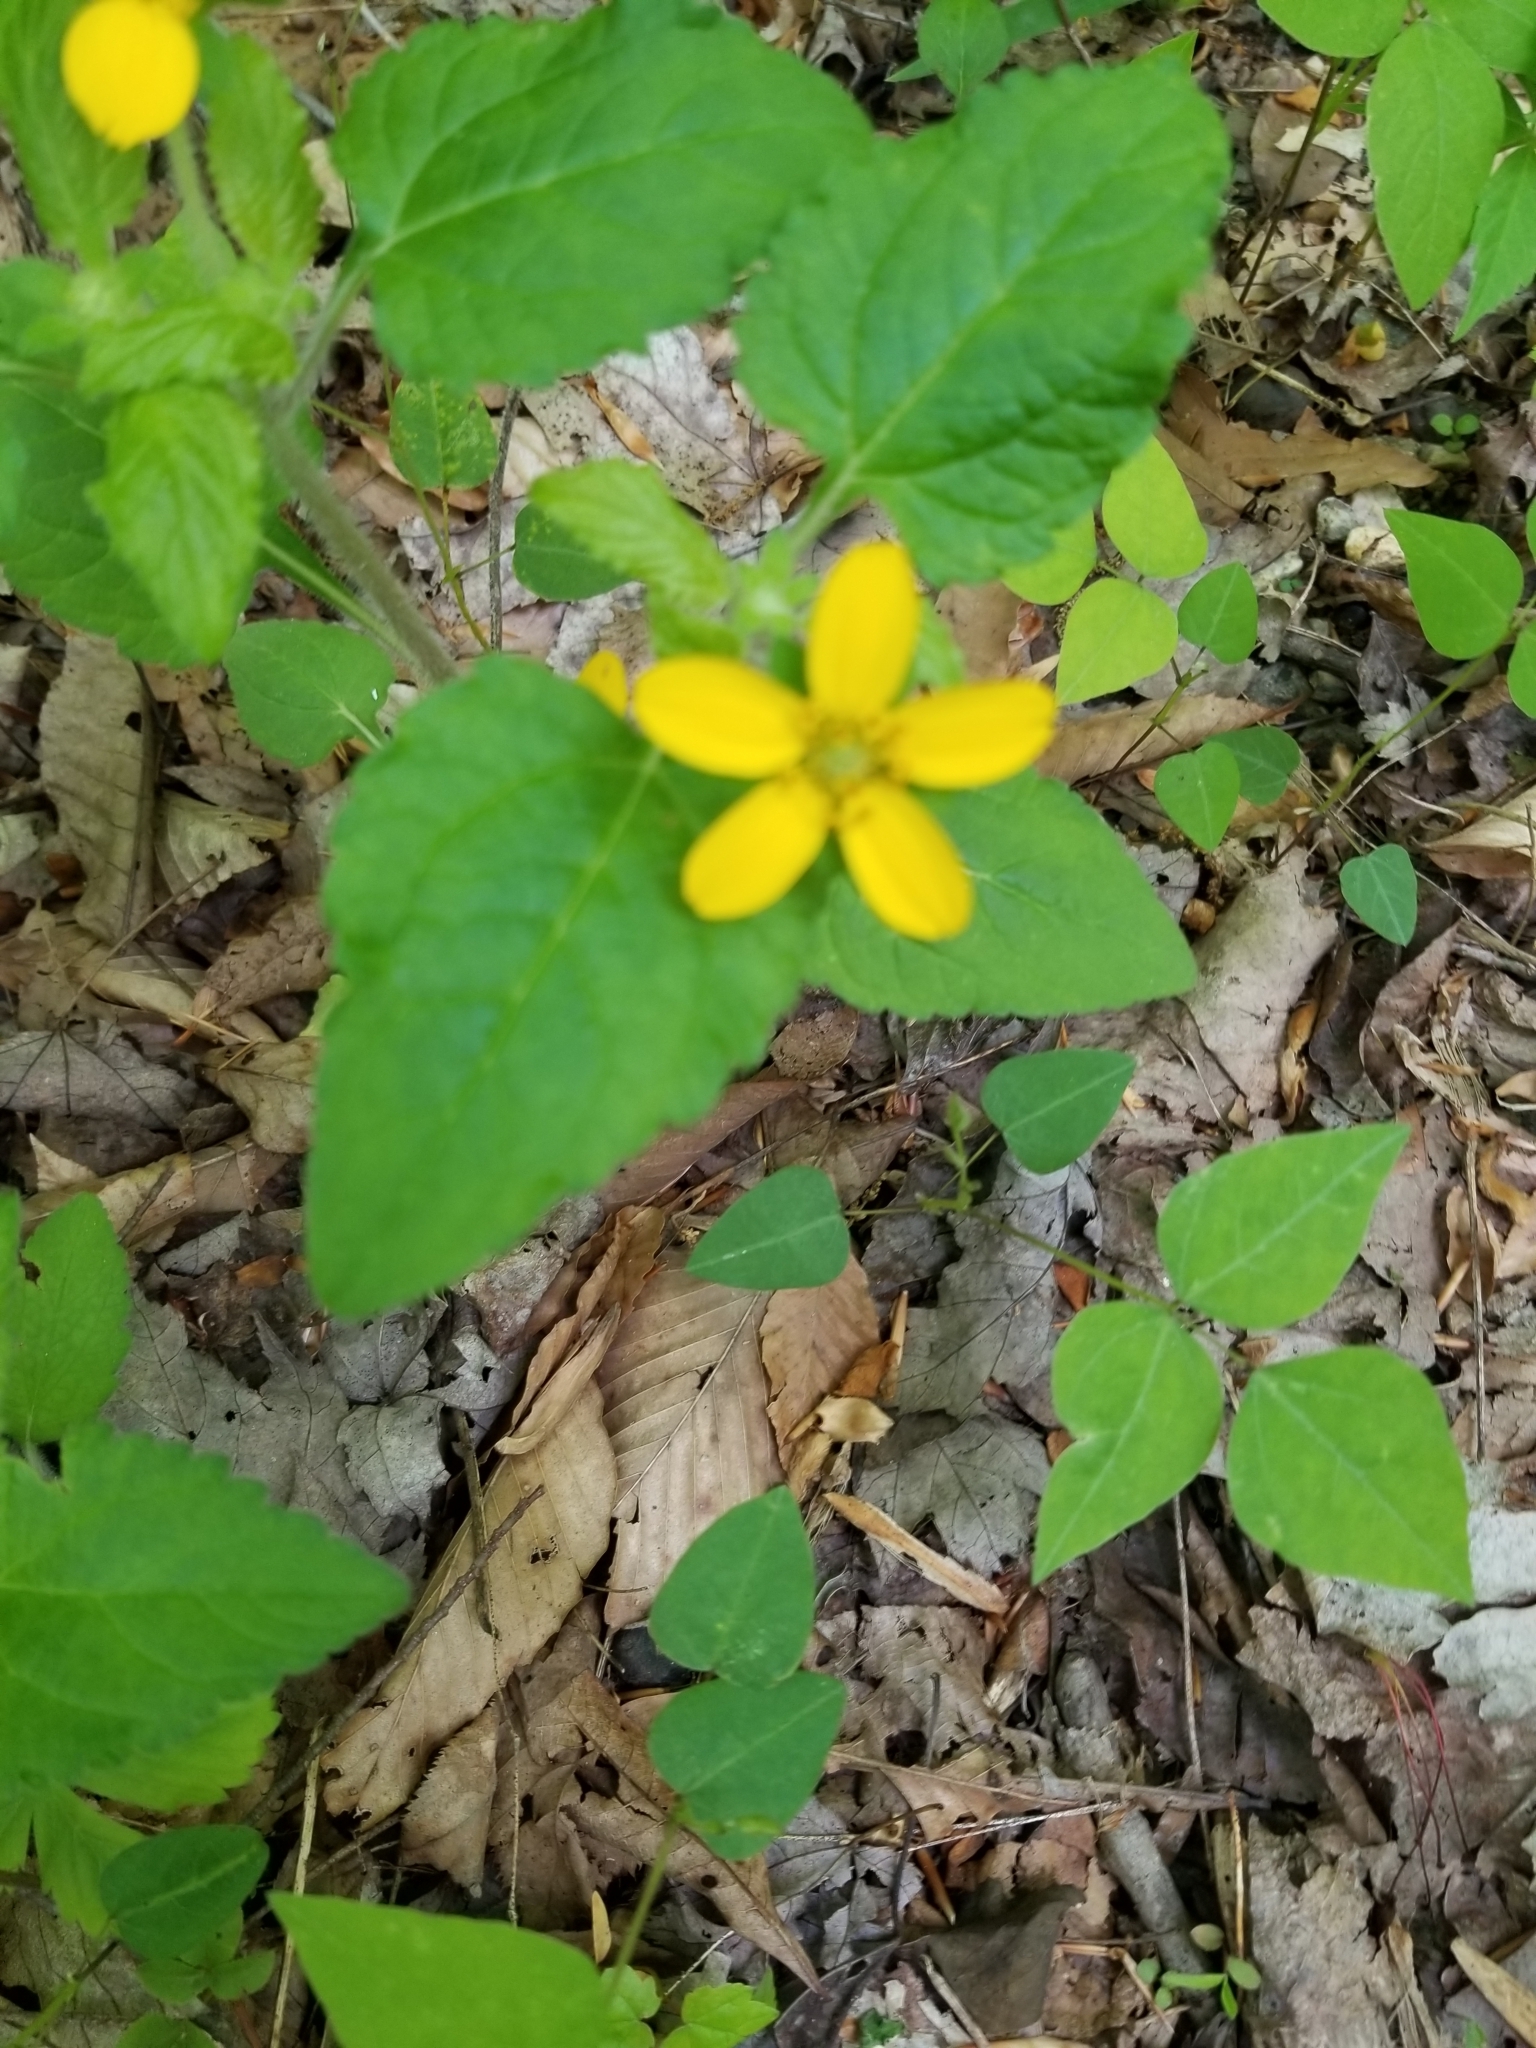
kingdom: Plantae
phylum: Tracheophyta
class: Magnoliopsida
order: Asterales
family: Asteraceae
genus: Chrysogonum
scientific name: Chrysogonum virginianum
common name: Golden-knee
